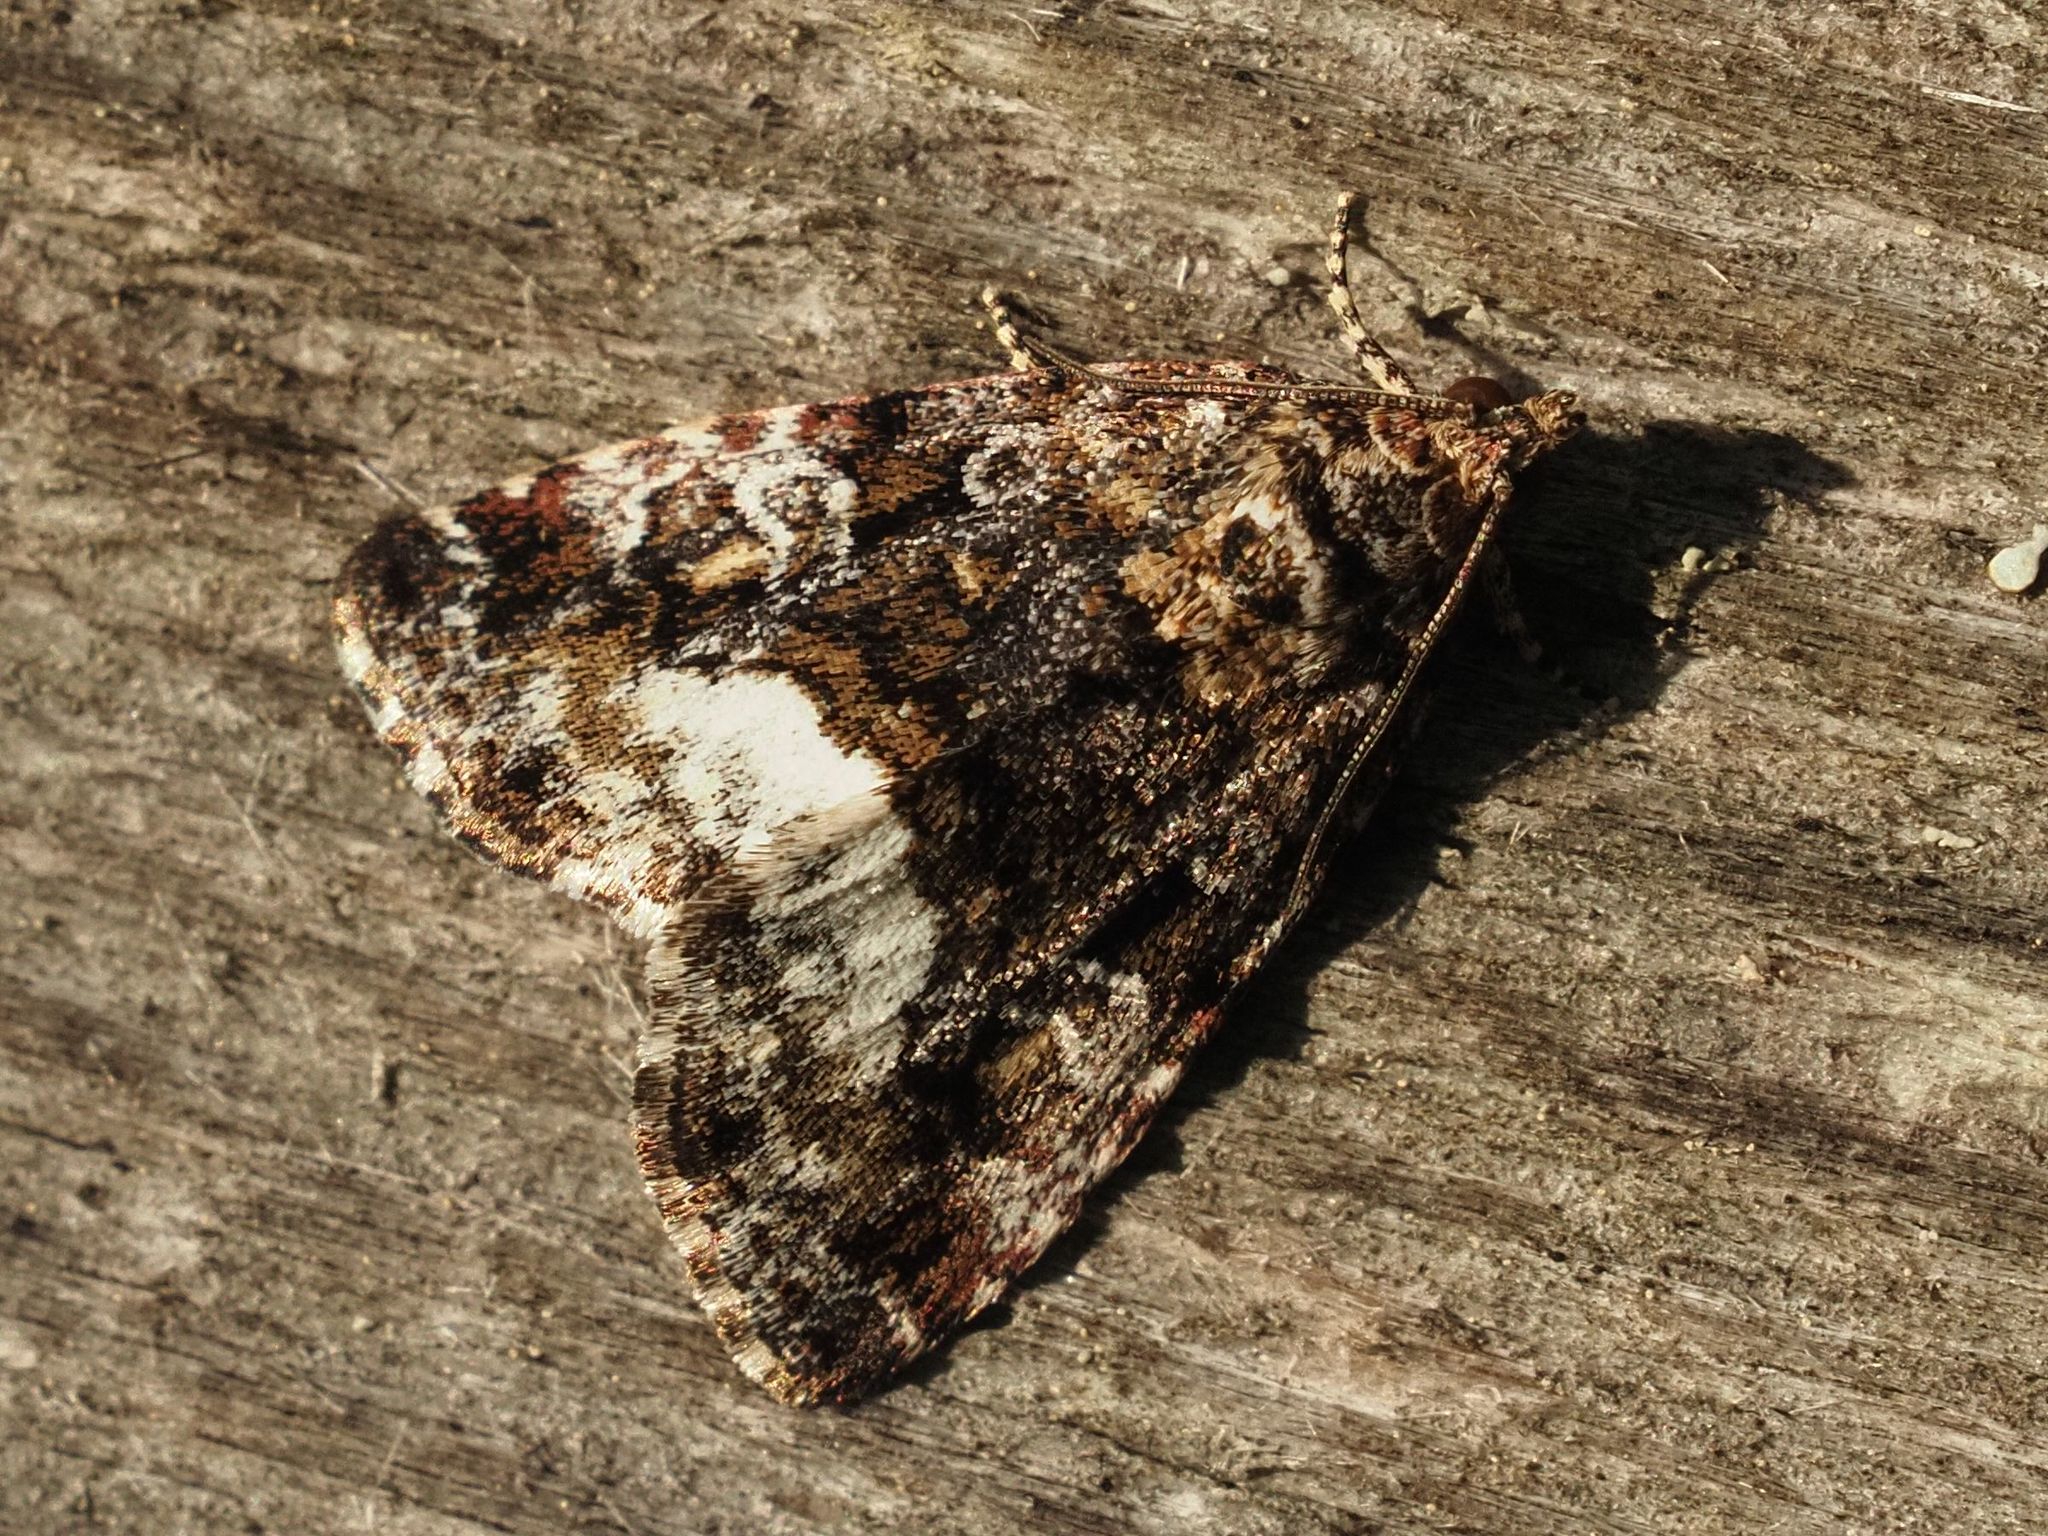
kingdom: Animalia
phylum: Arthropoda
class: Insecta
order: Lepidoptera
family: Noctuidae
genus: Deltote
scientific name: Deltote pygarga
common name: Marbled white spot
